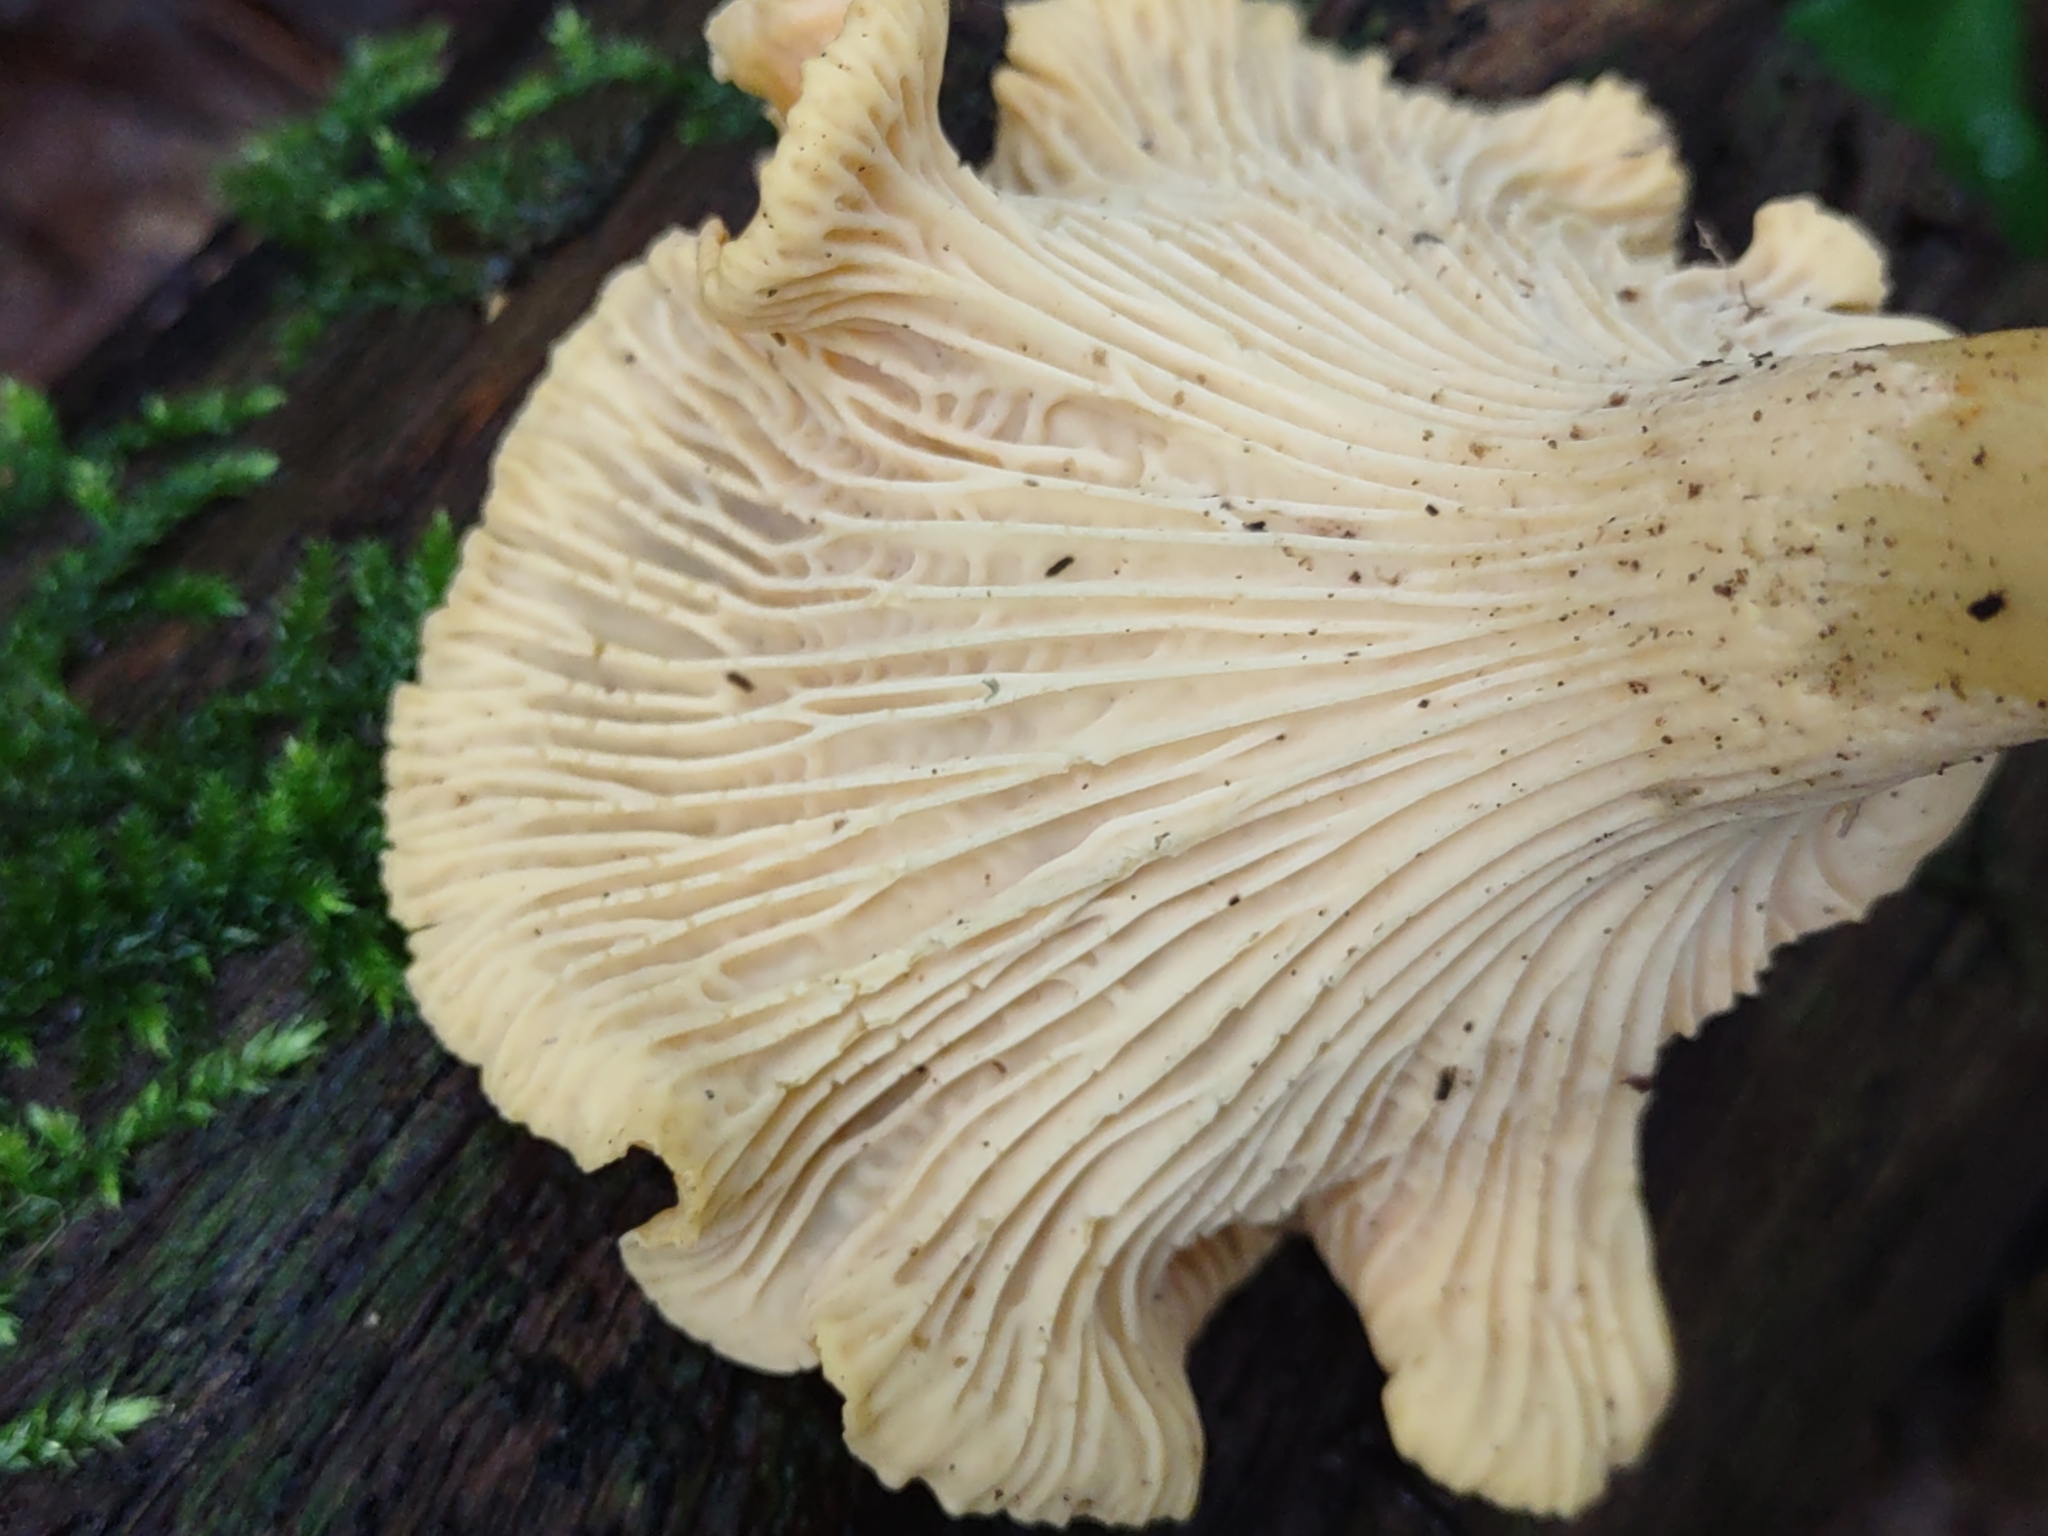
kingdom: Fungi
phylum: Basidiomycota
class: Agaricomycetes
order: Cantharellales
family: Hydnaceae
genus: Cantharellus
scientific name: Cantharellus cibarius
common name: Chanterelle
